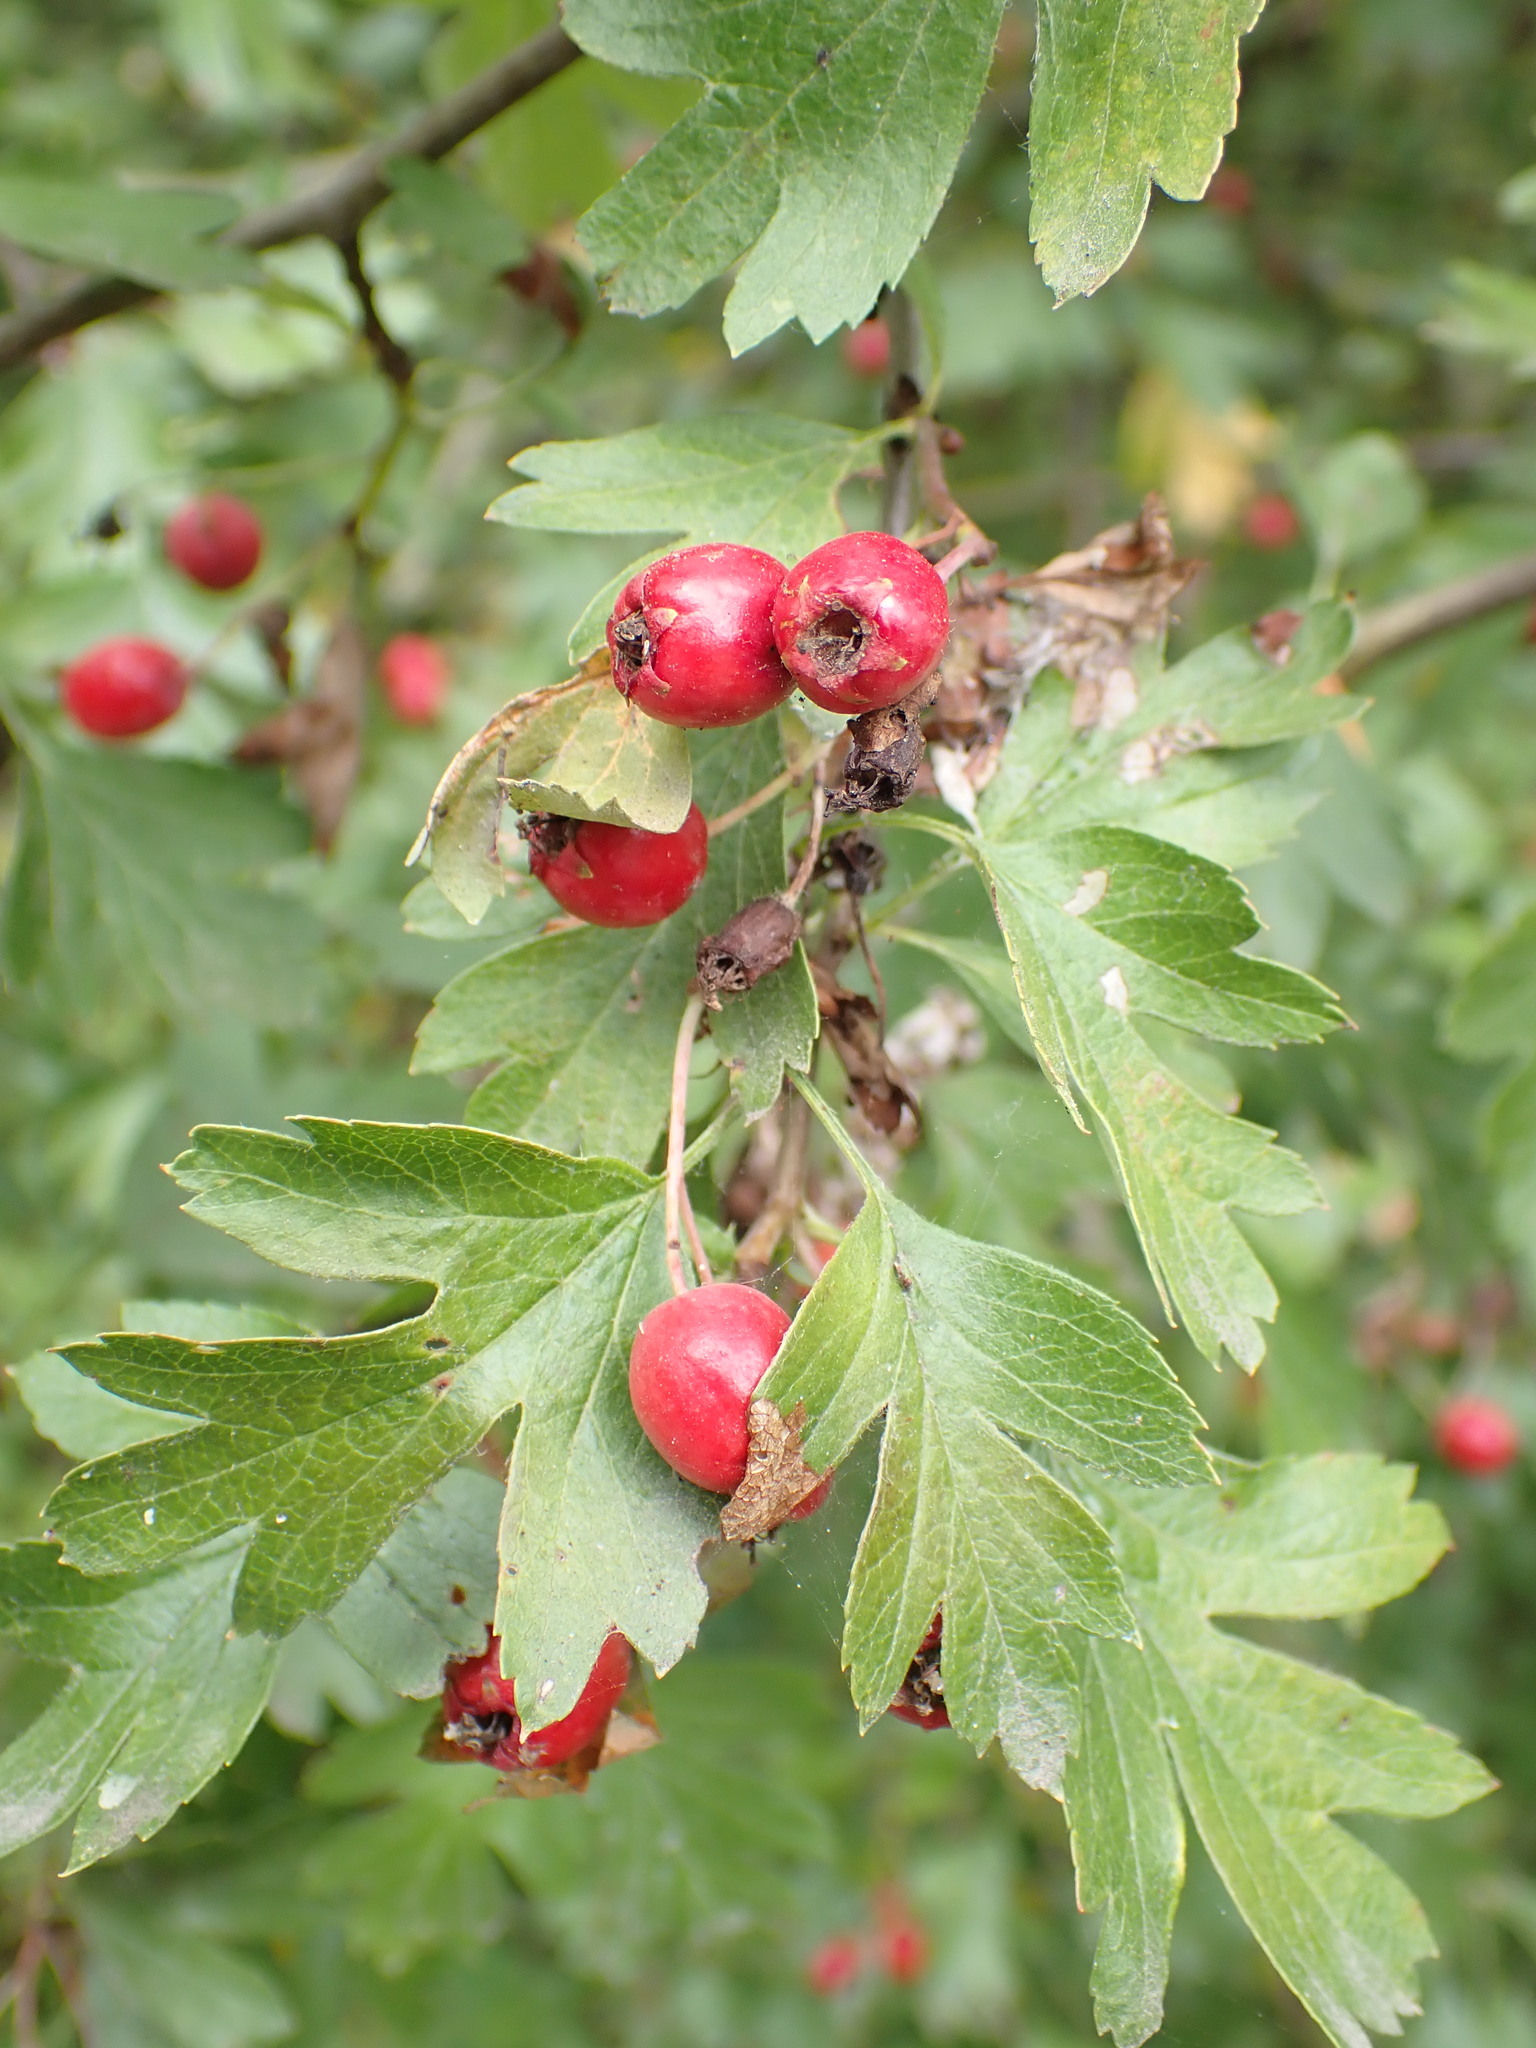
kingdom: Plantae
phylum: Tracheophyta
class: Magnoliopsida
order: Rosales
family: Rosaceae
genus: Crataegus
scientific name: Crataegus monogyna
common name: Hawthorn
